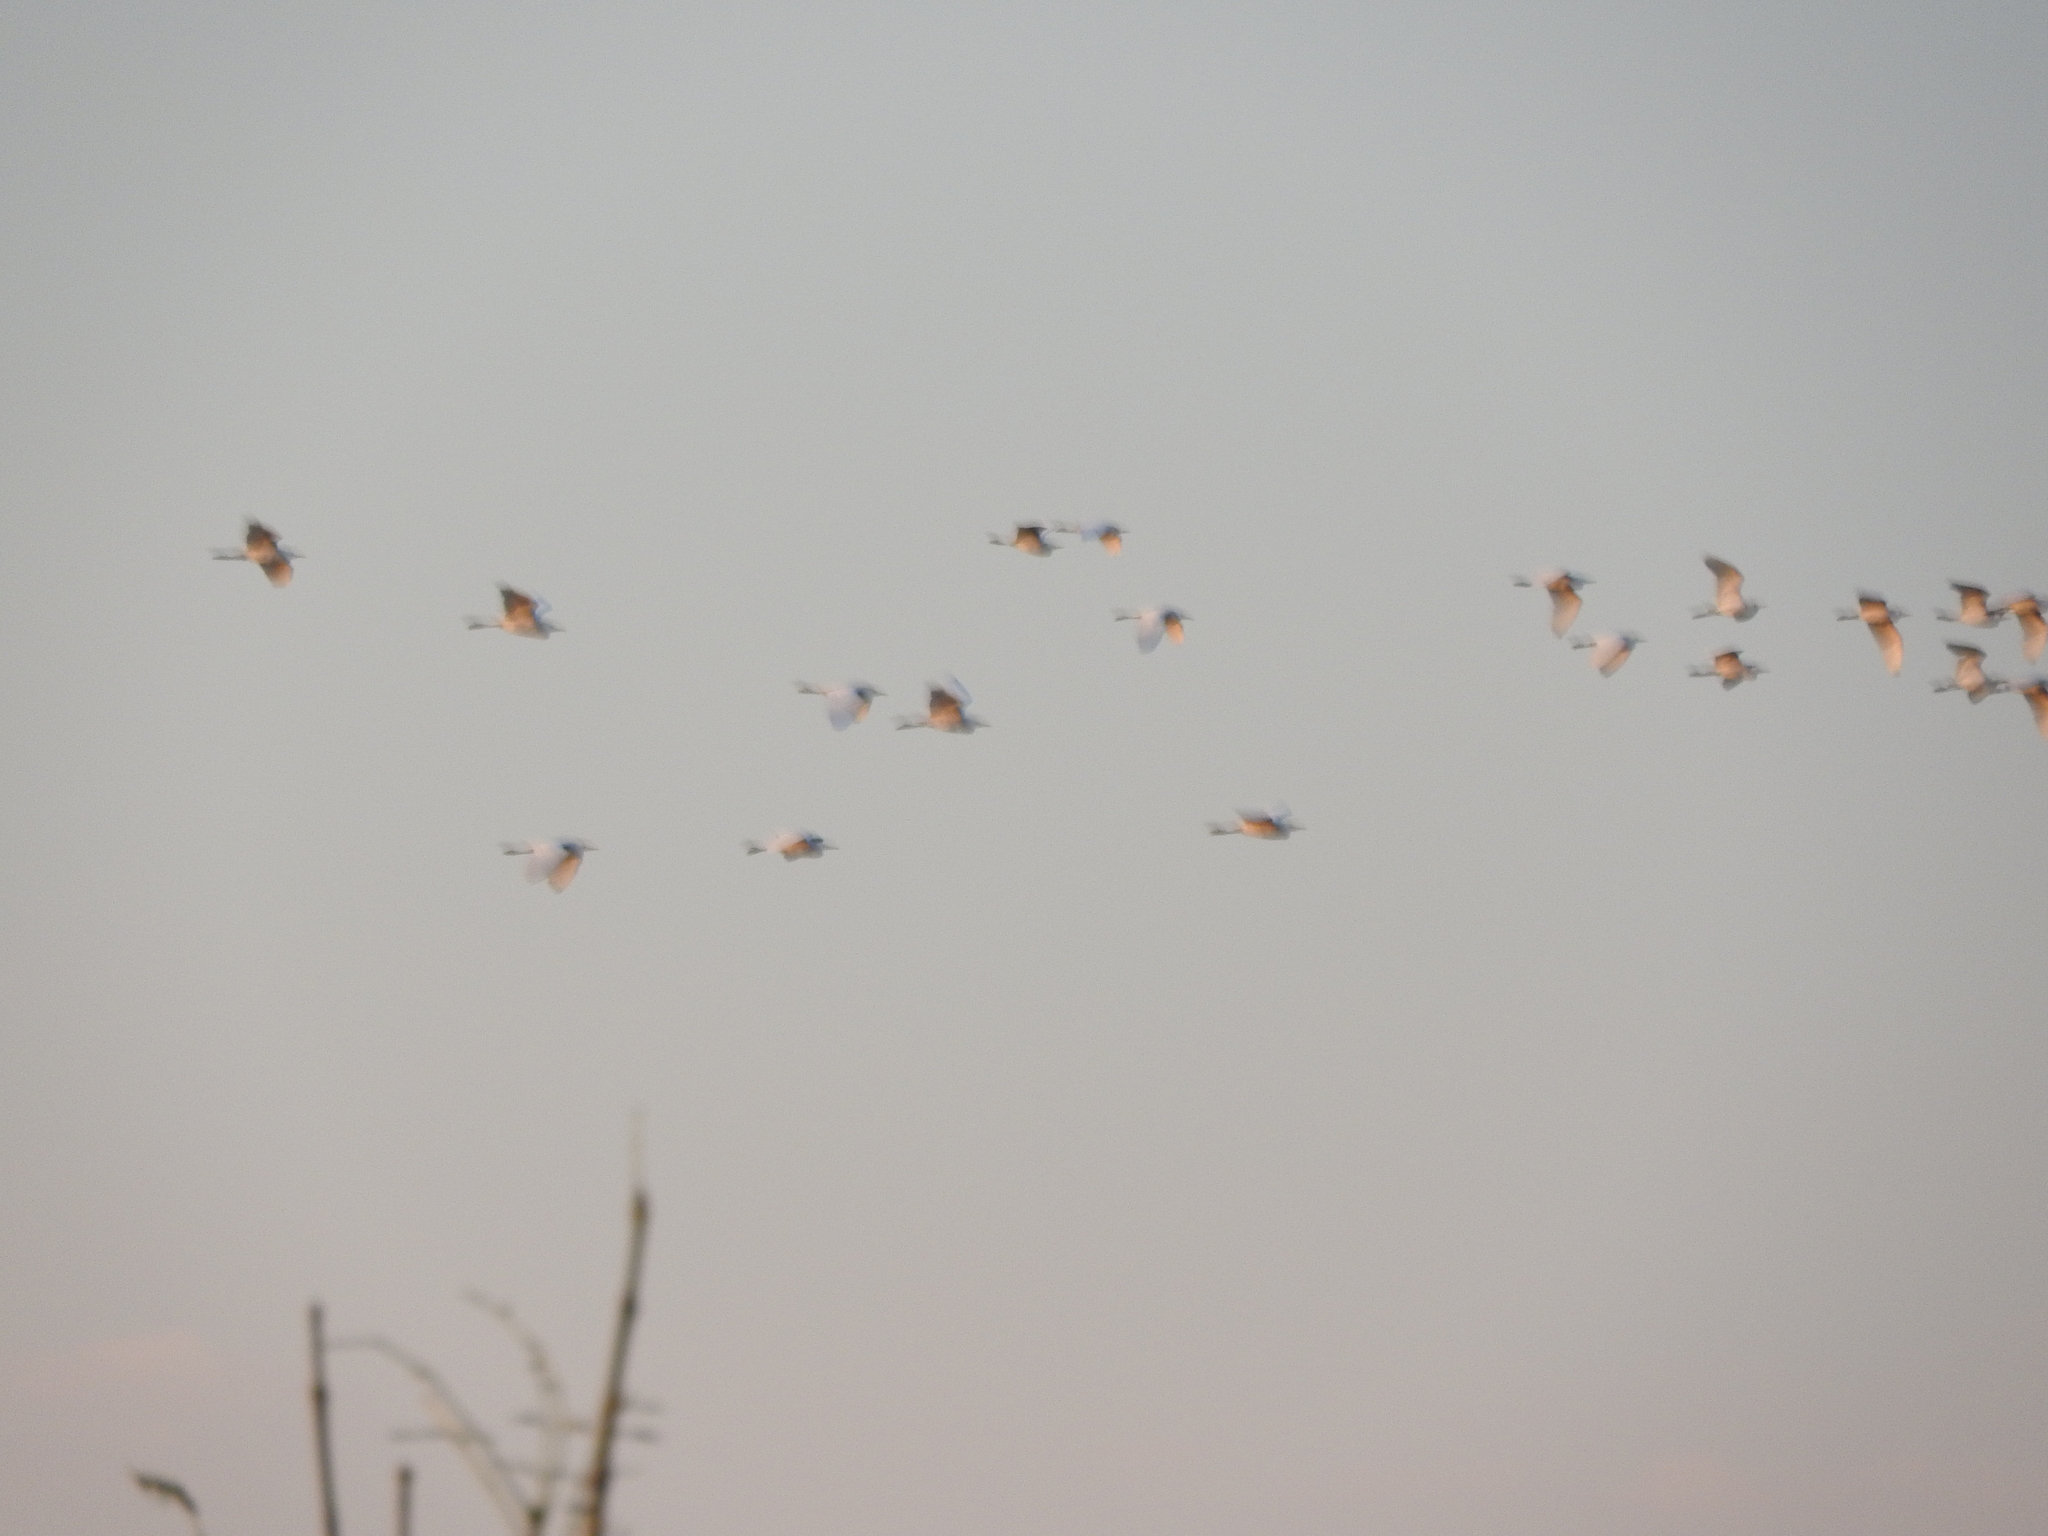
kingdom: Animalia
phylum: Chordata
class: Aves
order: Pelecaniformes
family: Ardeidae
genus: Bubulcus
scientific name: Bubulcus ibis
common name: Cattle egret
